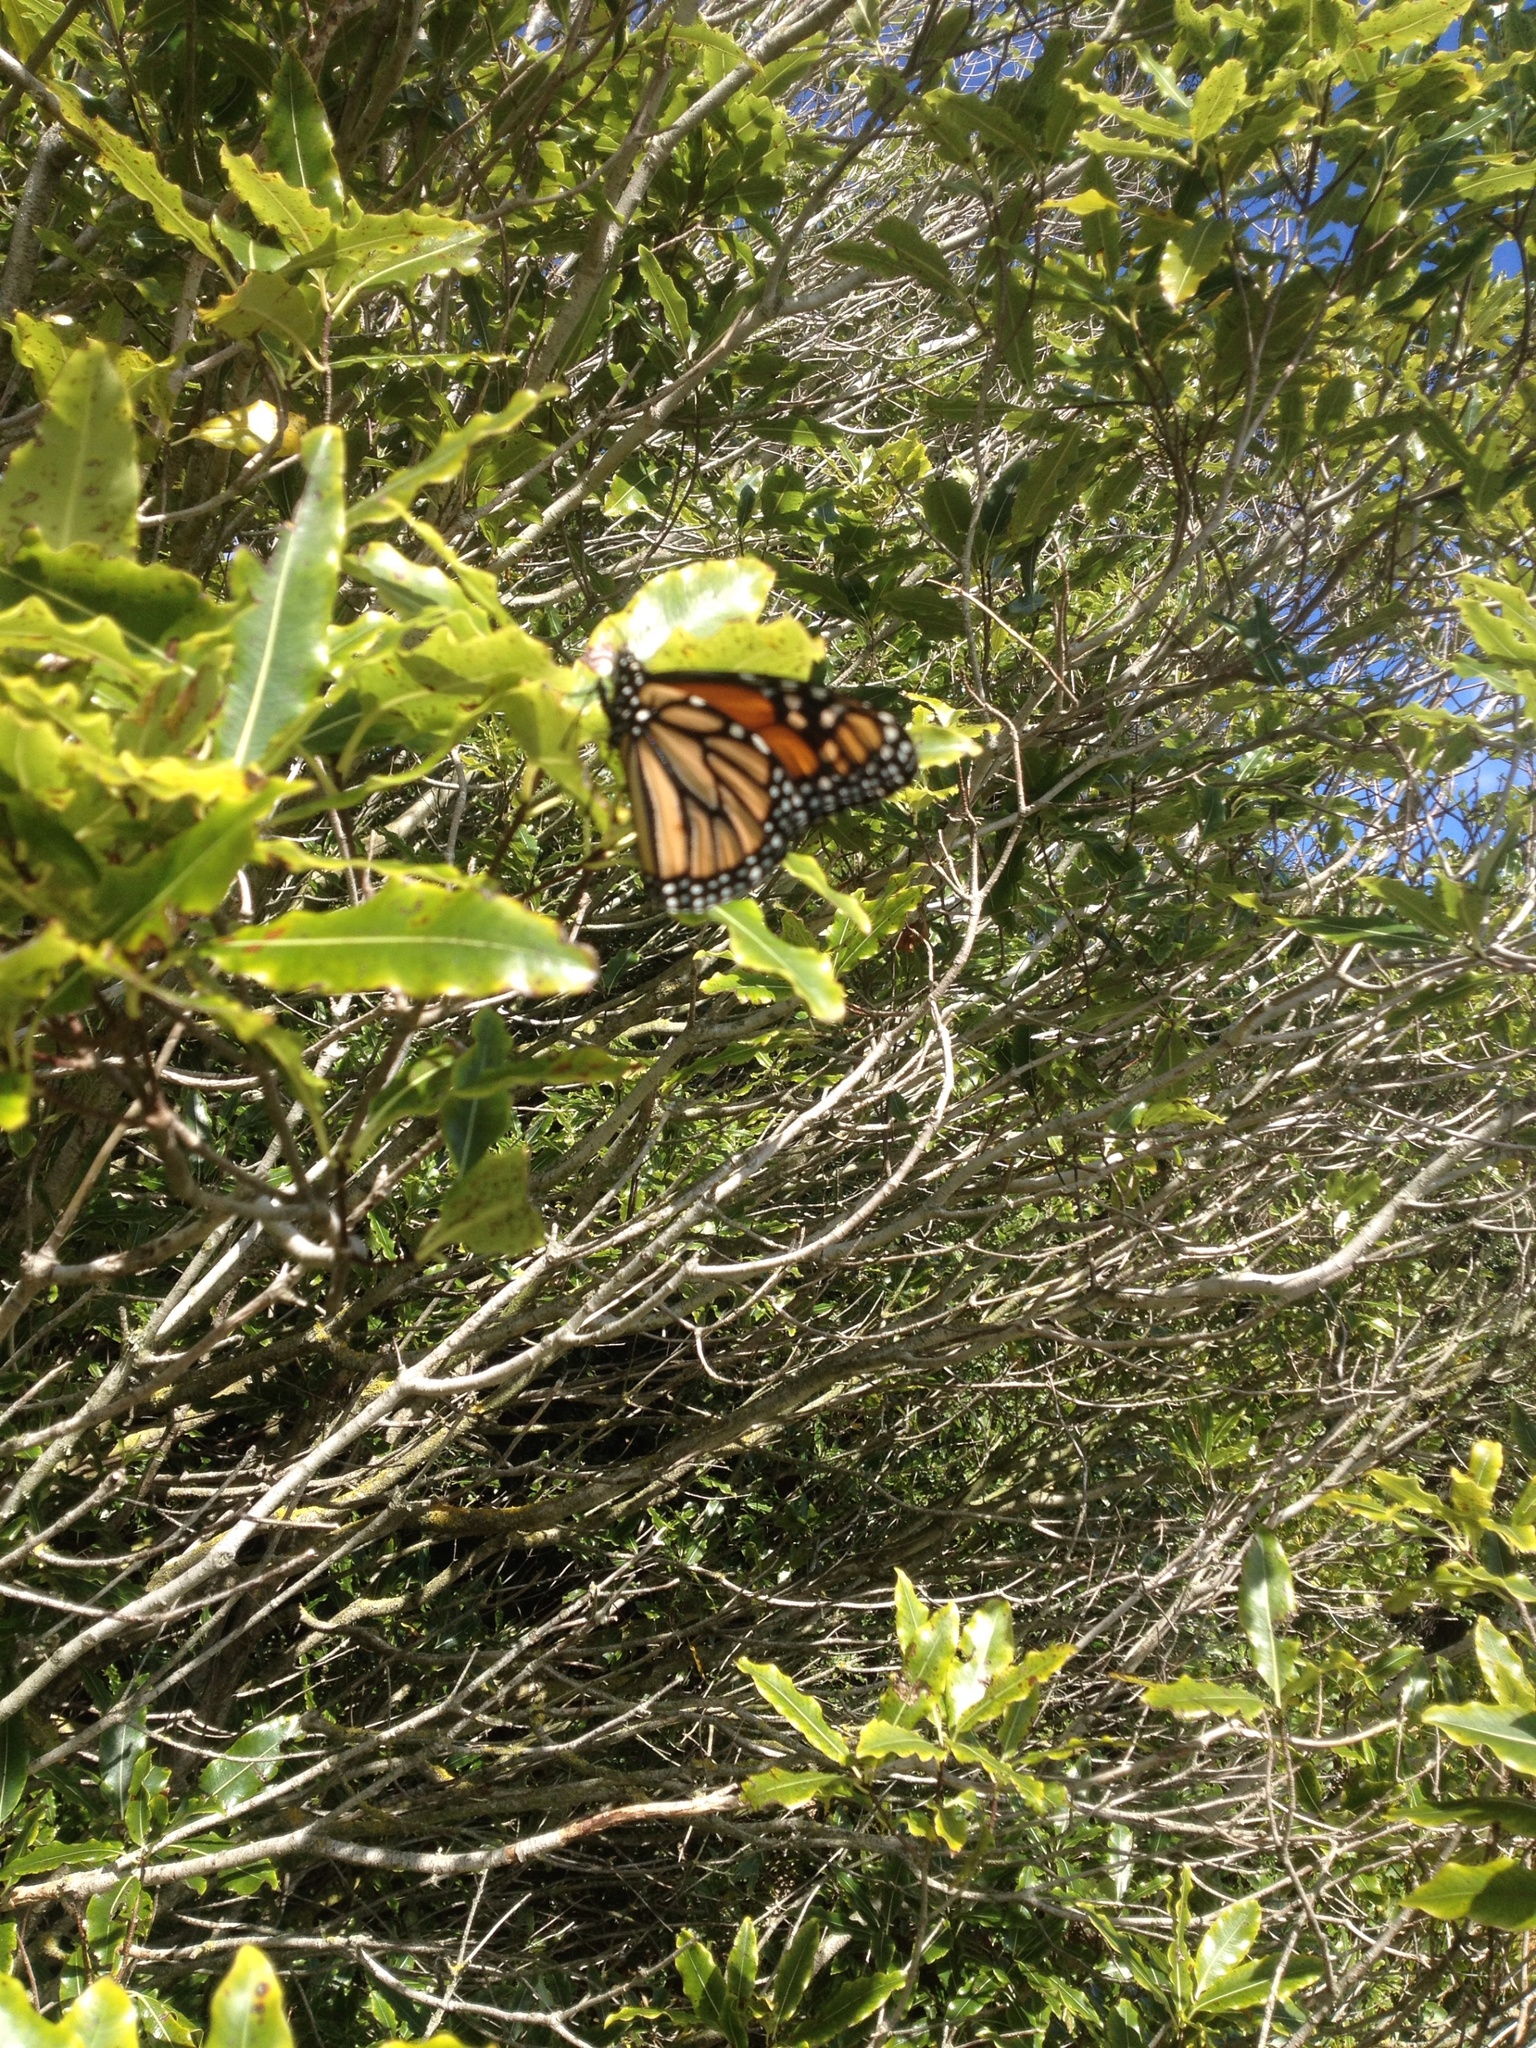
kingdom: Animalia
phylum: Arthropoda
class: Insecta
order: Lepidoptera
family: Nymphalidae
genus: Danaus
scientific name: Danaus plexippus
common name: Monarch
